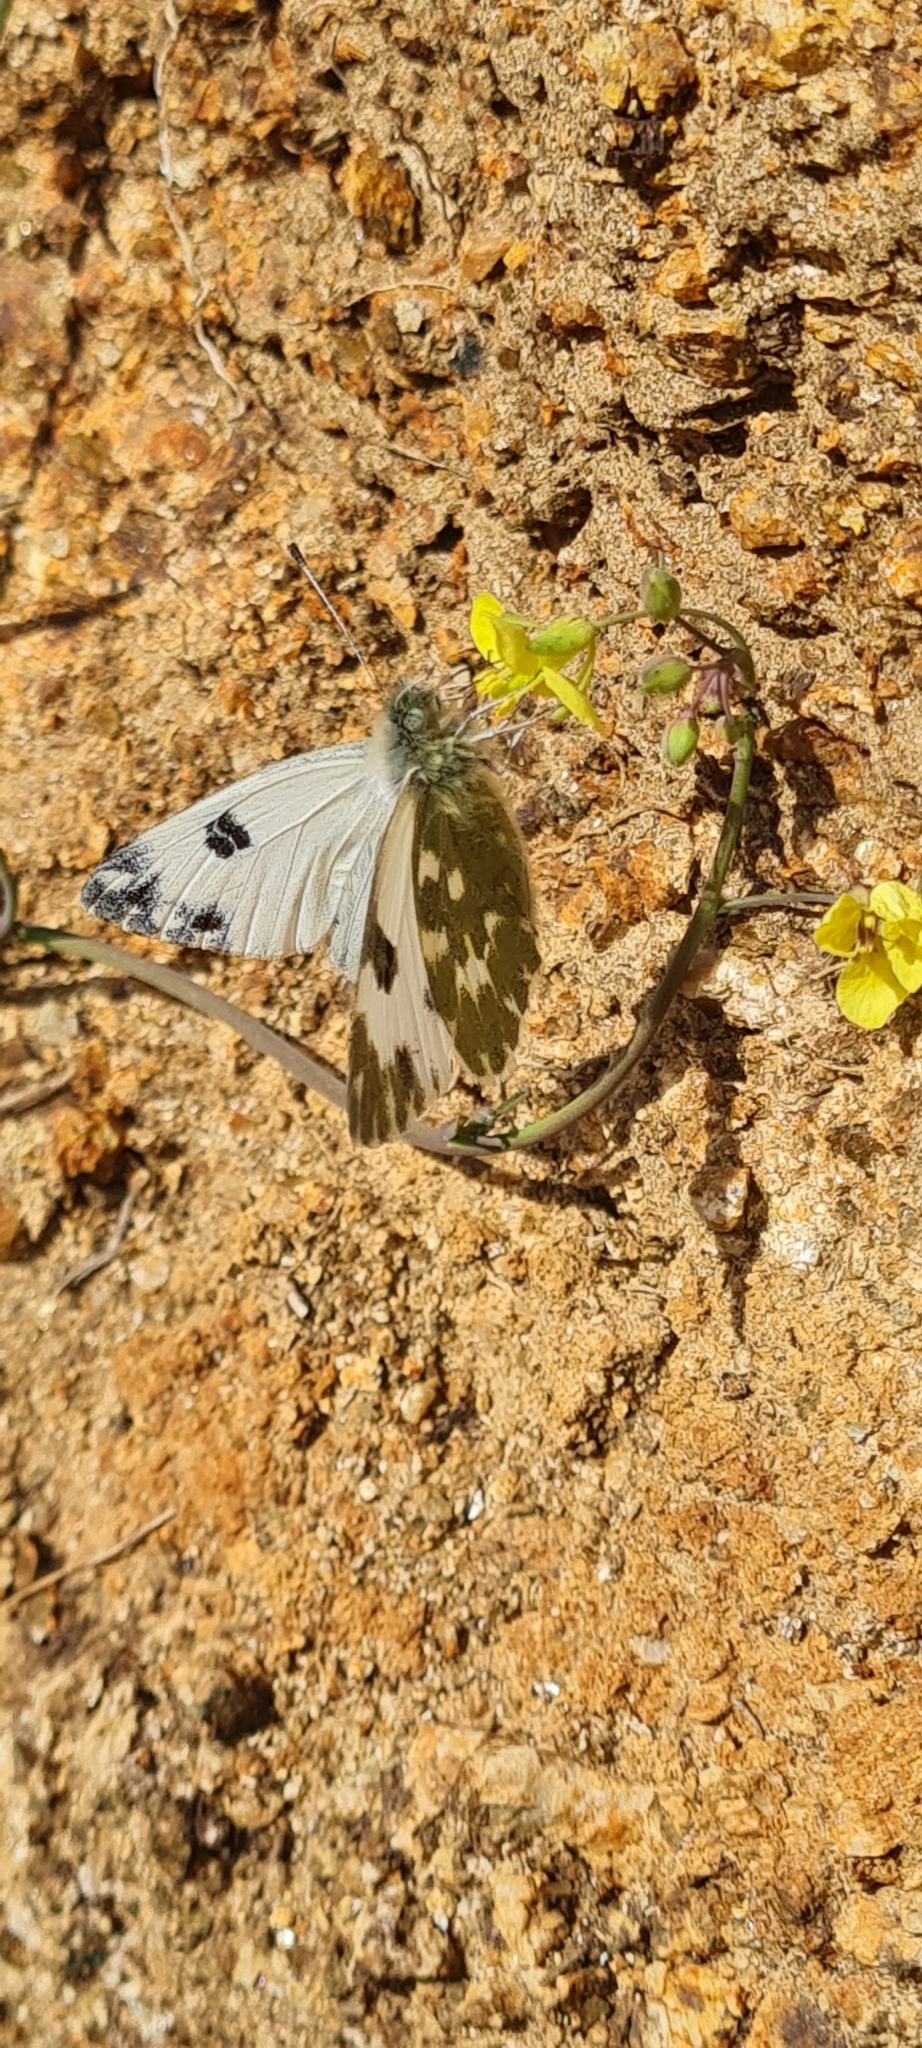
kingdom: Animalia
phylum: Arthropoda
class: Insecta
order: Lepidoptera
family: Pieridae
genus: Pontia
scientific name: Pontia daplidice
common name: Bath white
